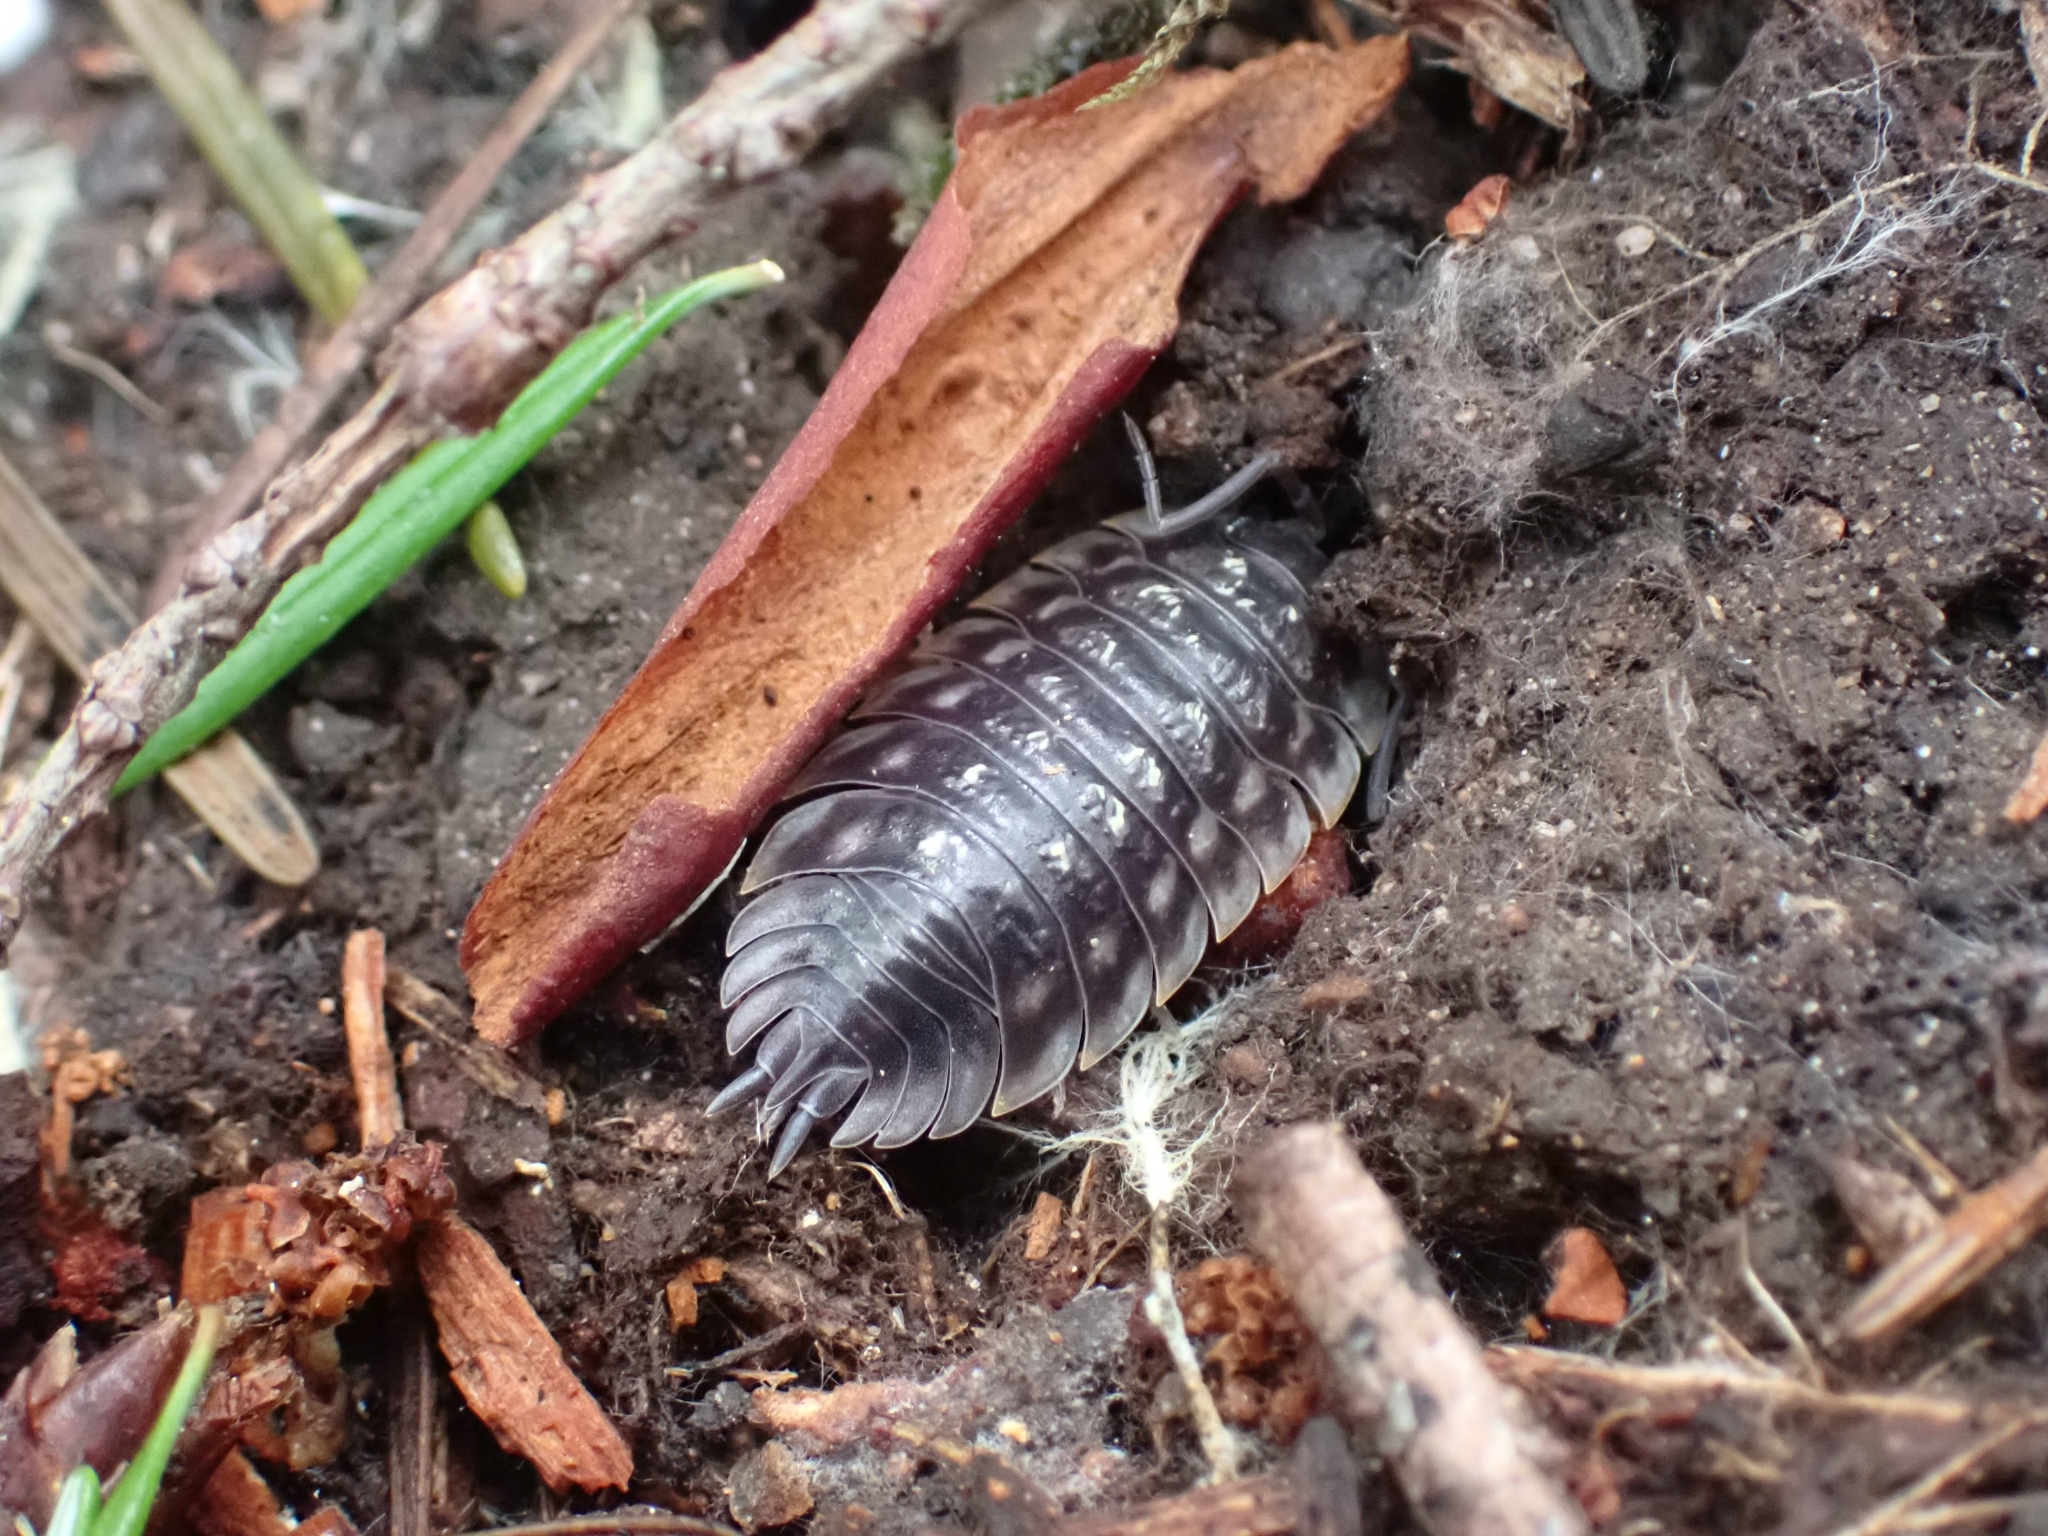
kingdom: Animalia
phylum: Arthropoda
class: Malacostraca
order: Isopoda
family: Oniscidae
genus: Oniscus
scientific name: Oniscus asellus
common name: Common shiny woodlouse
